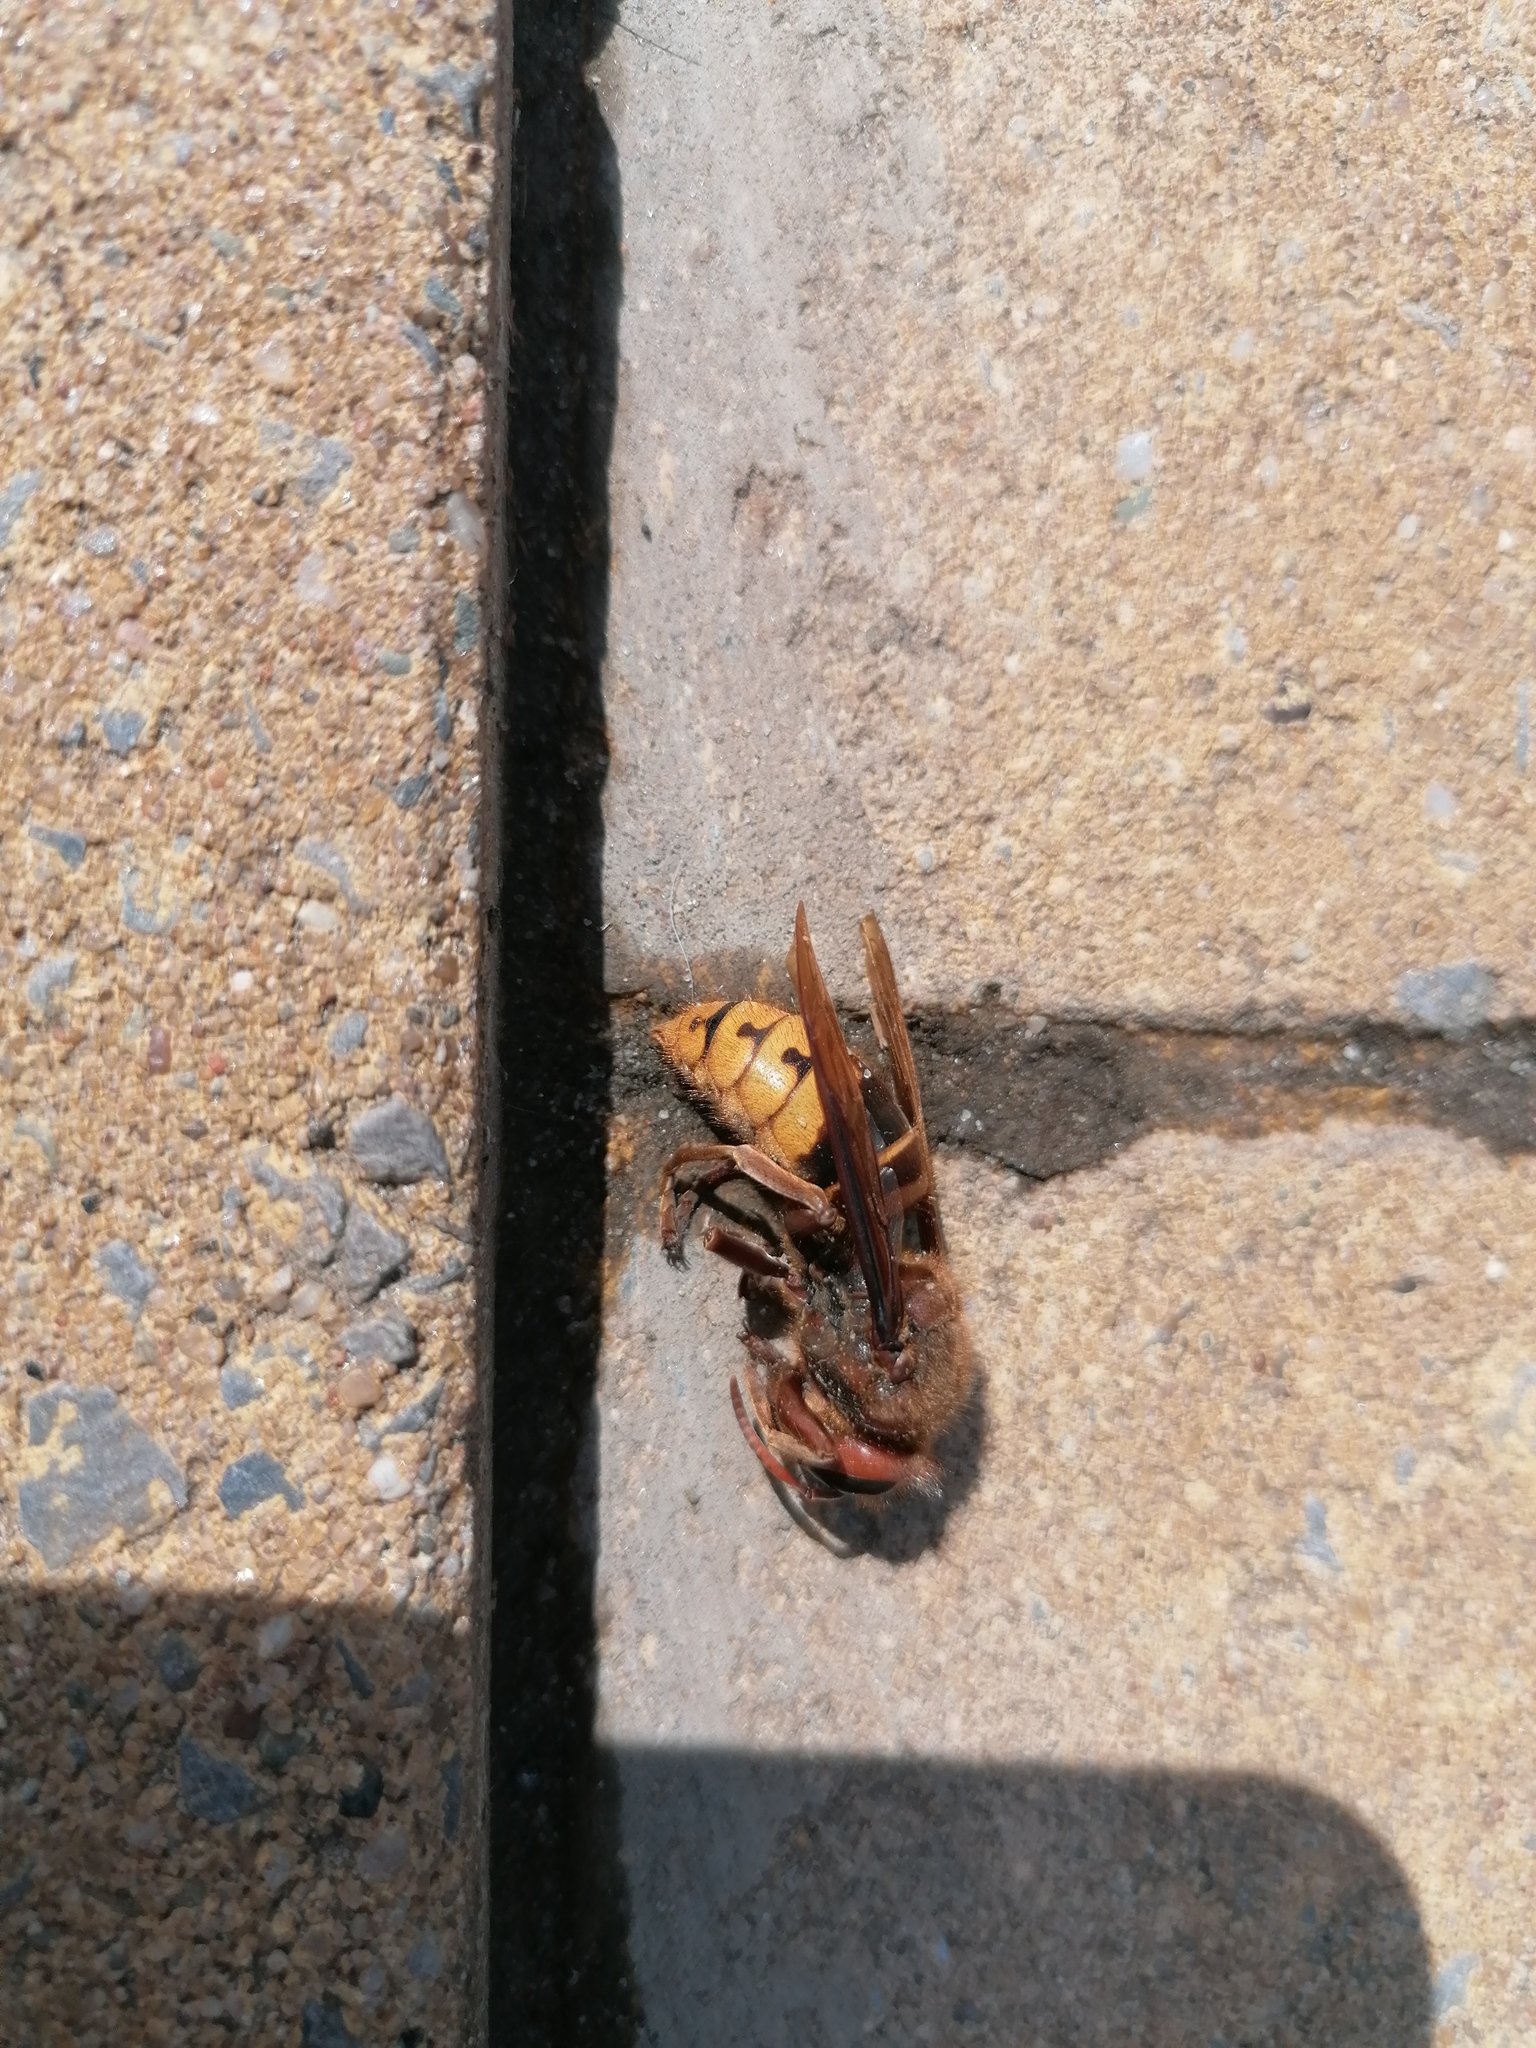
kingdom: Animalia
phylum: Arthropoda
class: Insecta
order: Hymenoptera
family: Vespidae
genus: Vespa
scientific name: Vespa crabro
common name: Hornet
